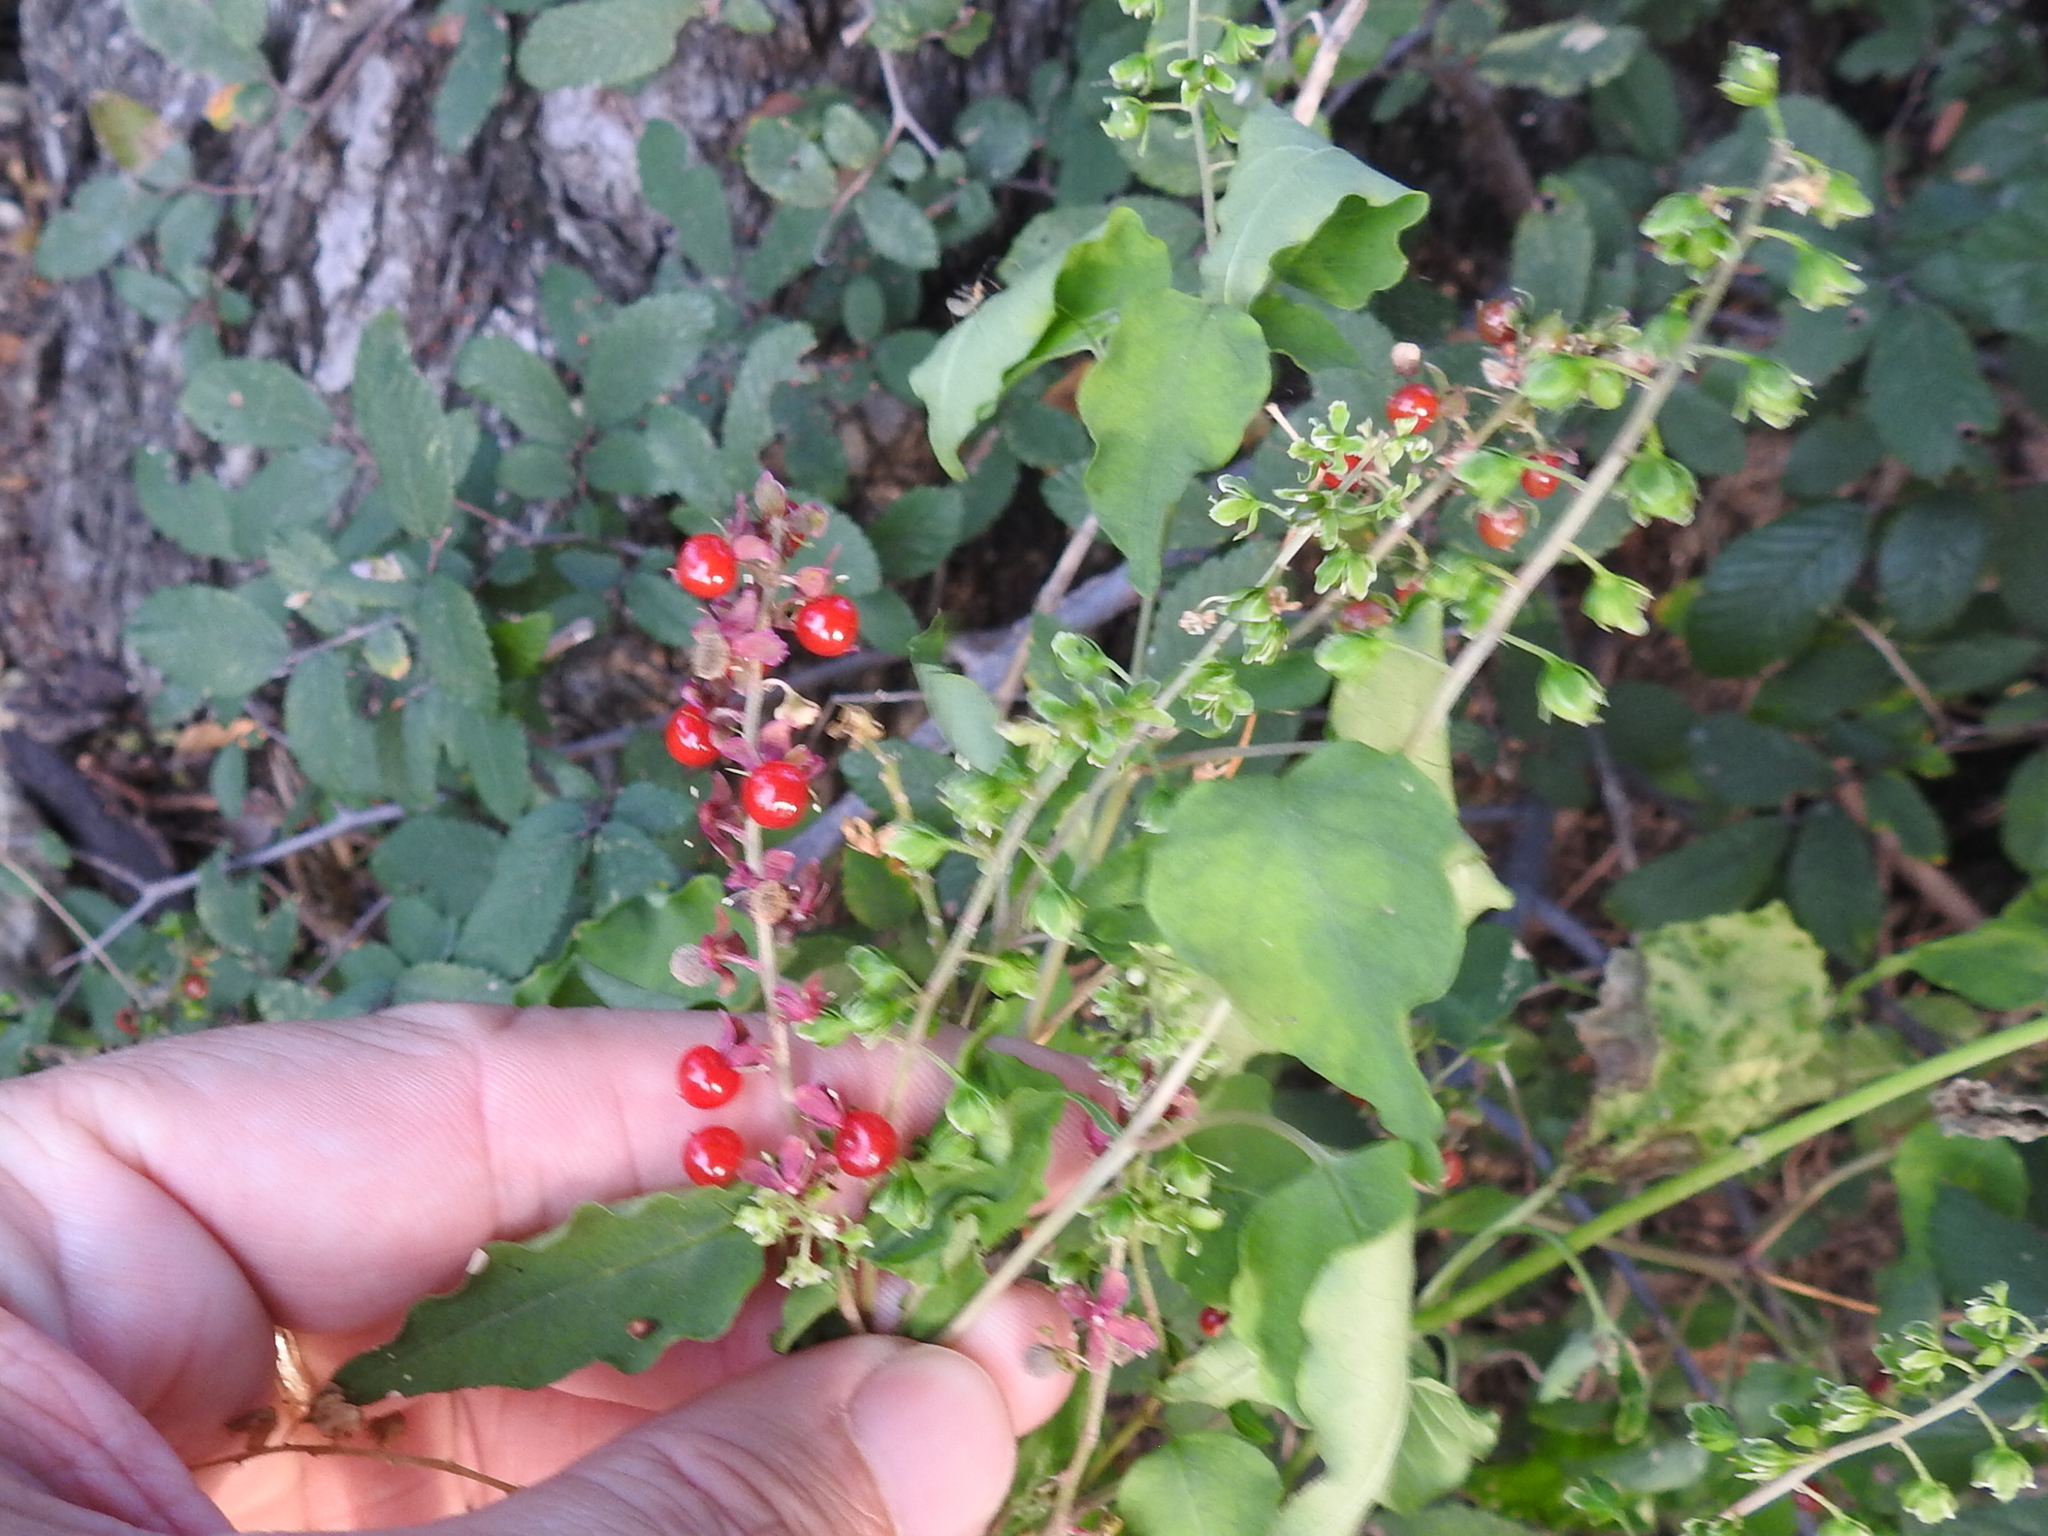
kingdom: Plantae
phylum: Tracheophyta
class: Magnoliopsida
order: Caryophyllales
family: Phytolaccaceae
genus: Rivina
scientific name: Rivina humilis
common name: Rougeplant
